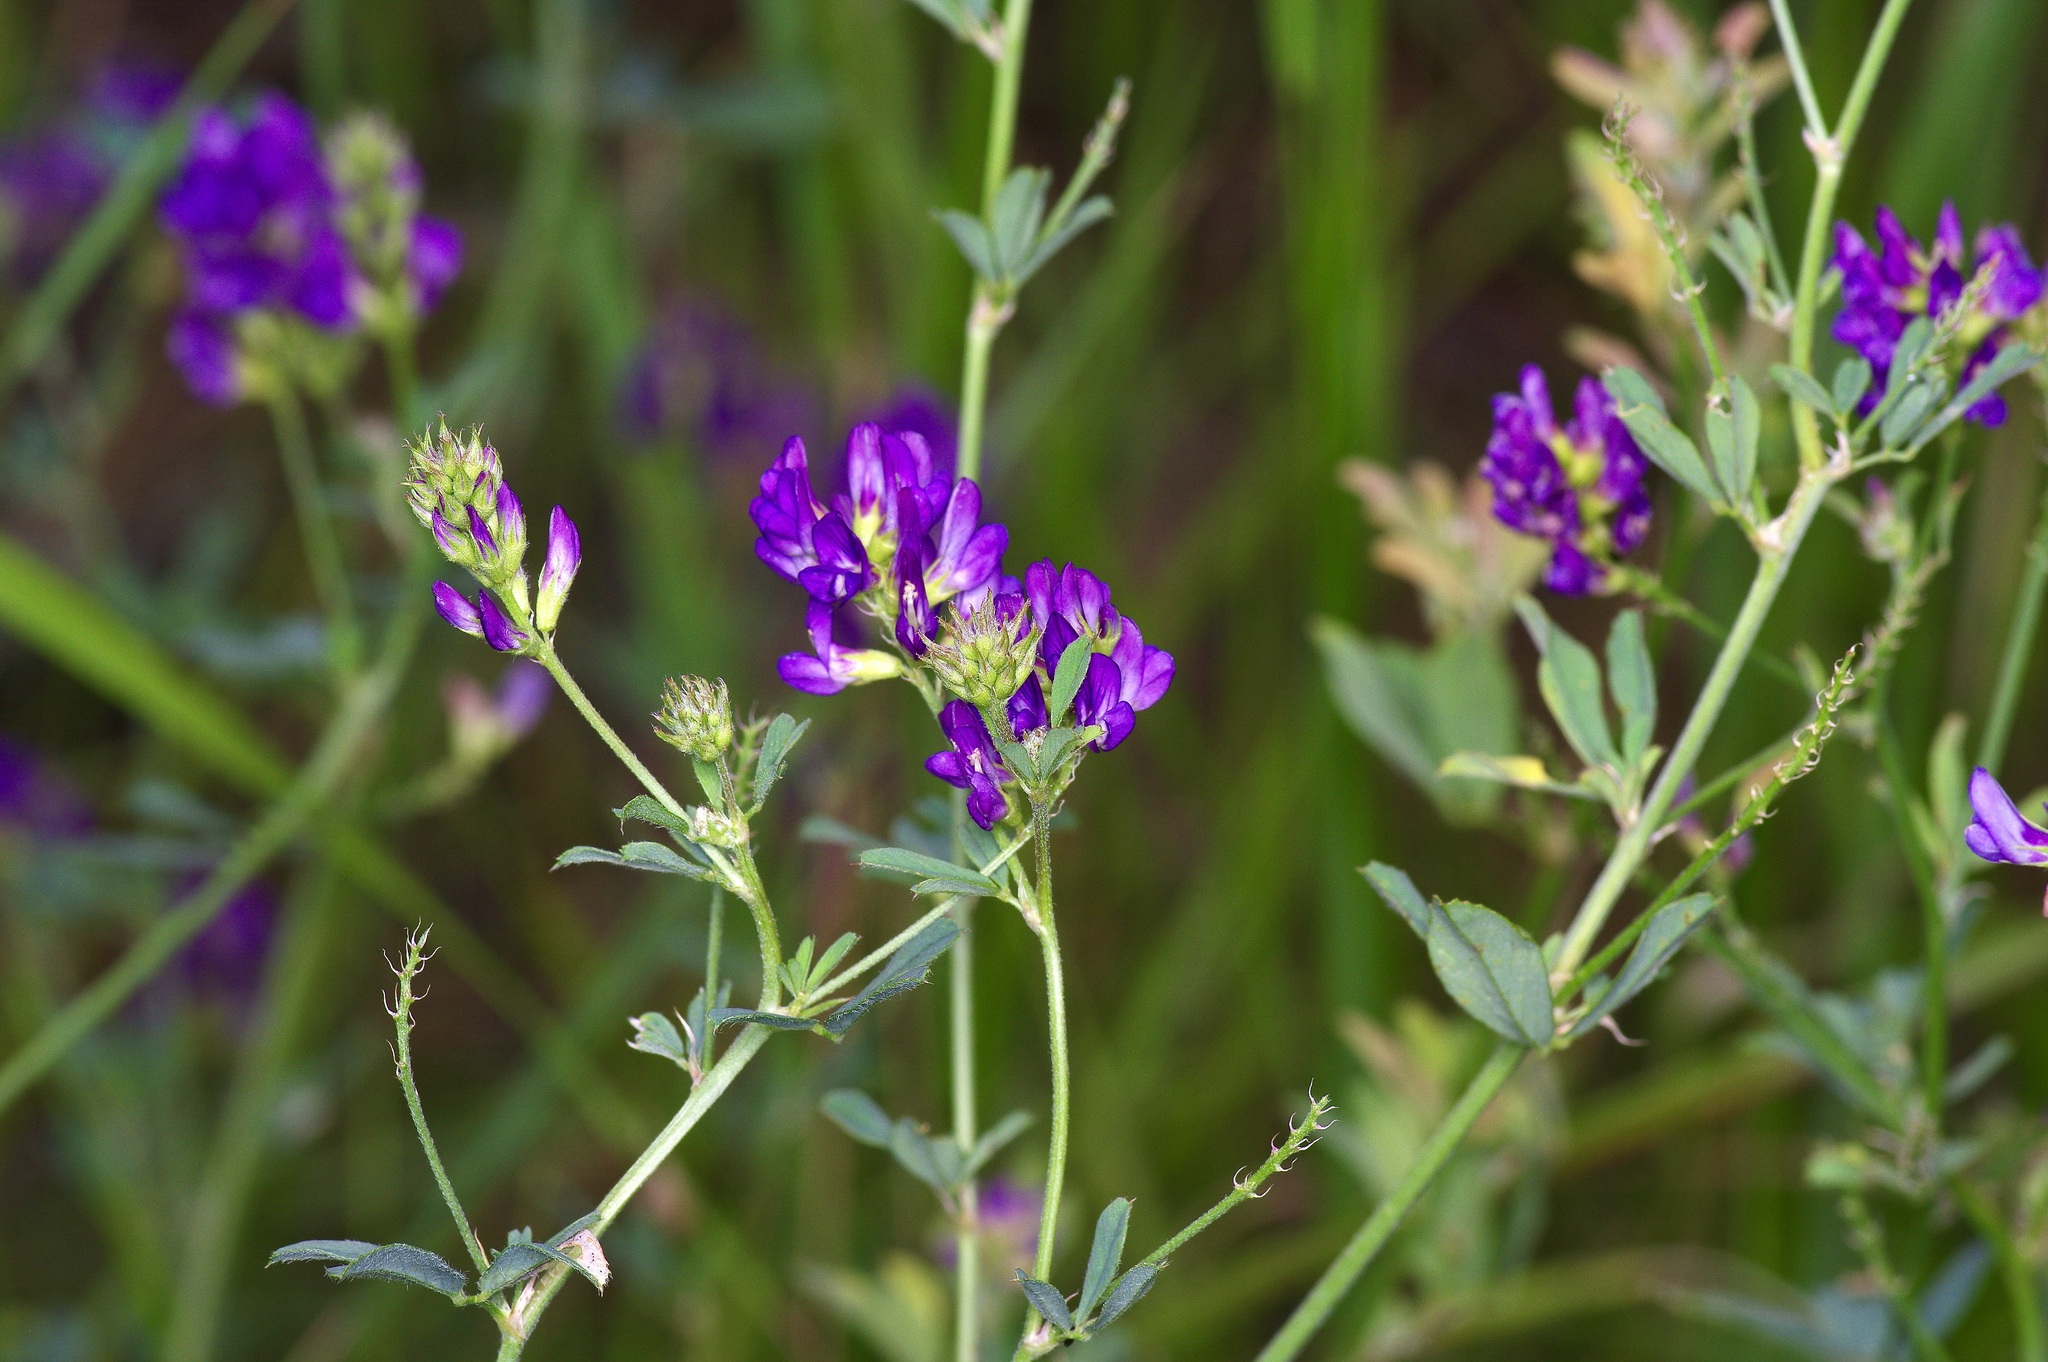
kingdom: Plantae
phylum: Tracheophyta
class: Magnoliopsida
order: Fabales
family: Fabaceae
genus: Medicago
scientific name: Medicago sativa
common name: Alfalfa
